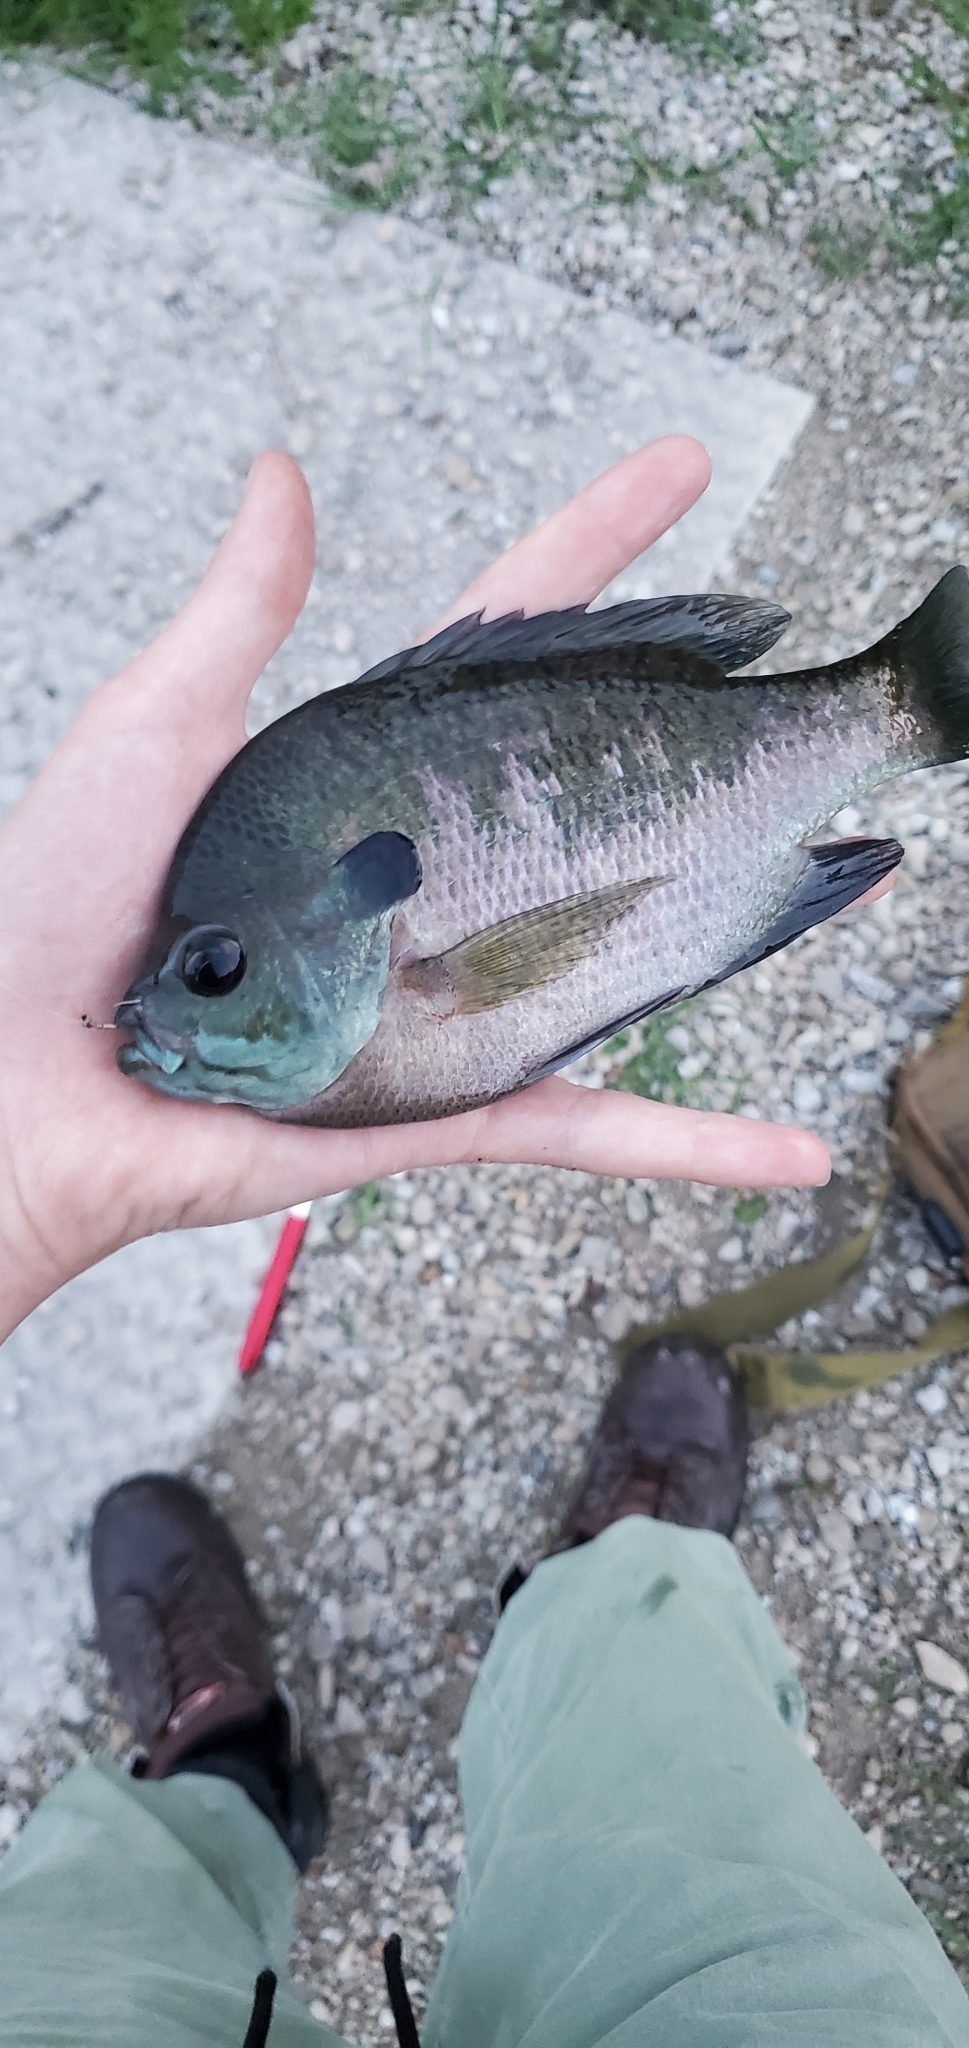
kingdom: Animalia
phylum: Chordata
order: Perciformes
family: Centrarchidae
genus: Lepomis
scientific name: Lepomis macrochirus
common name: Bluegill
